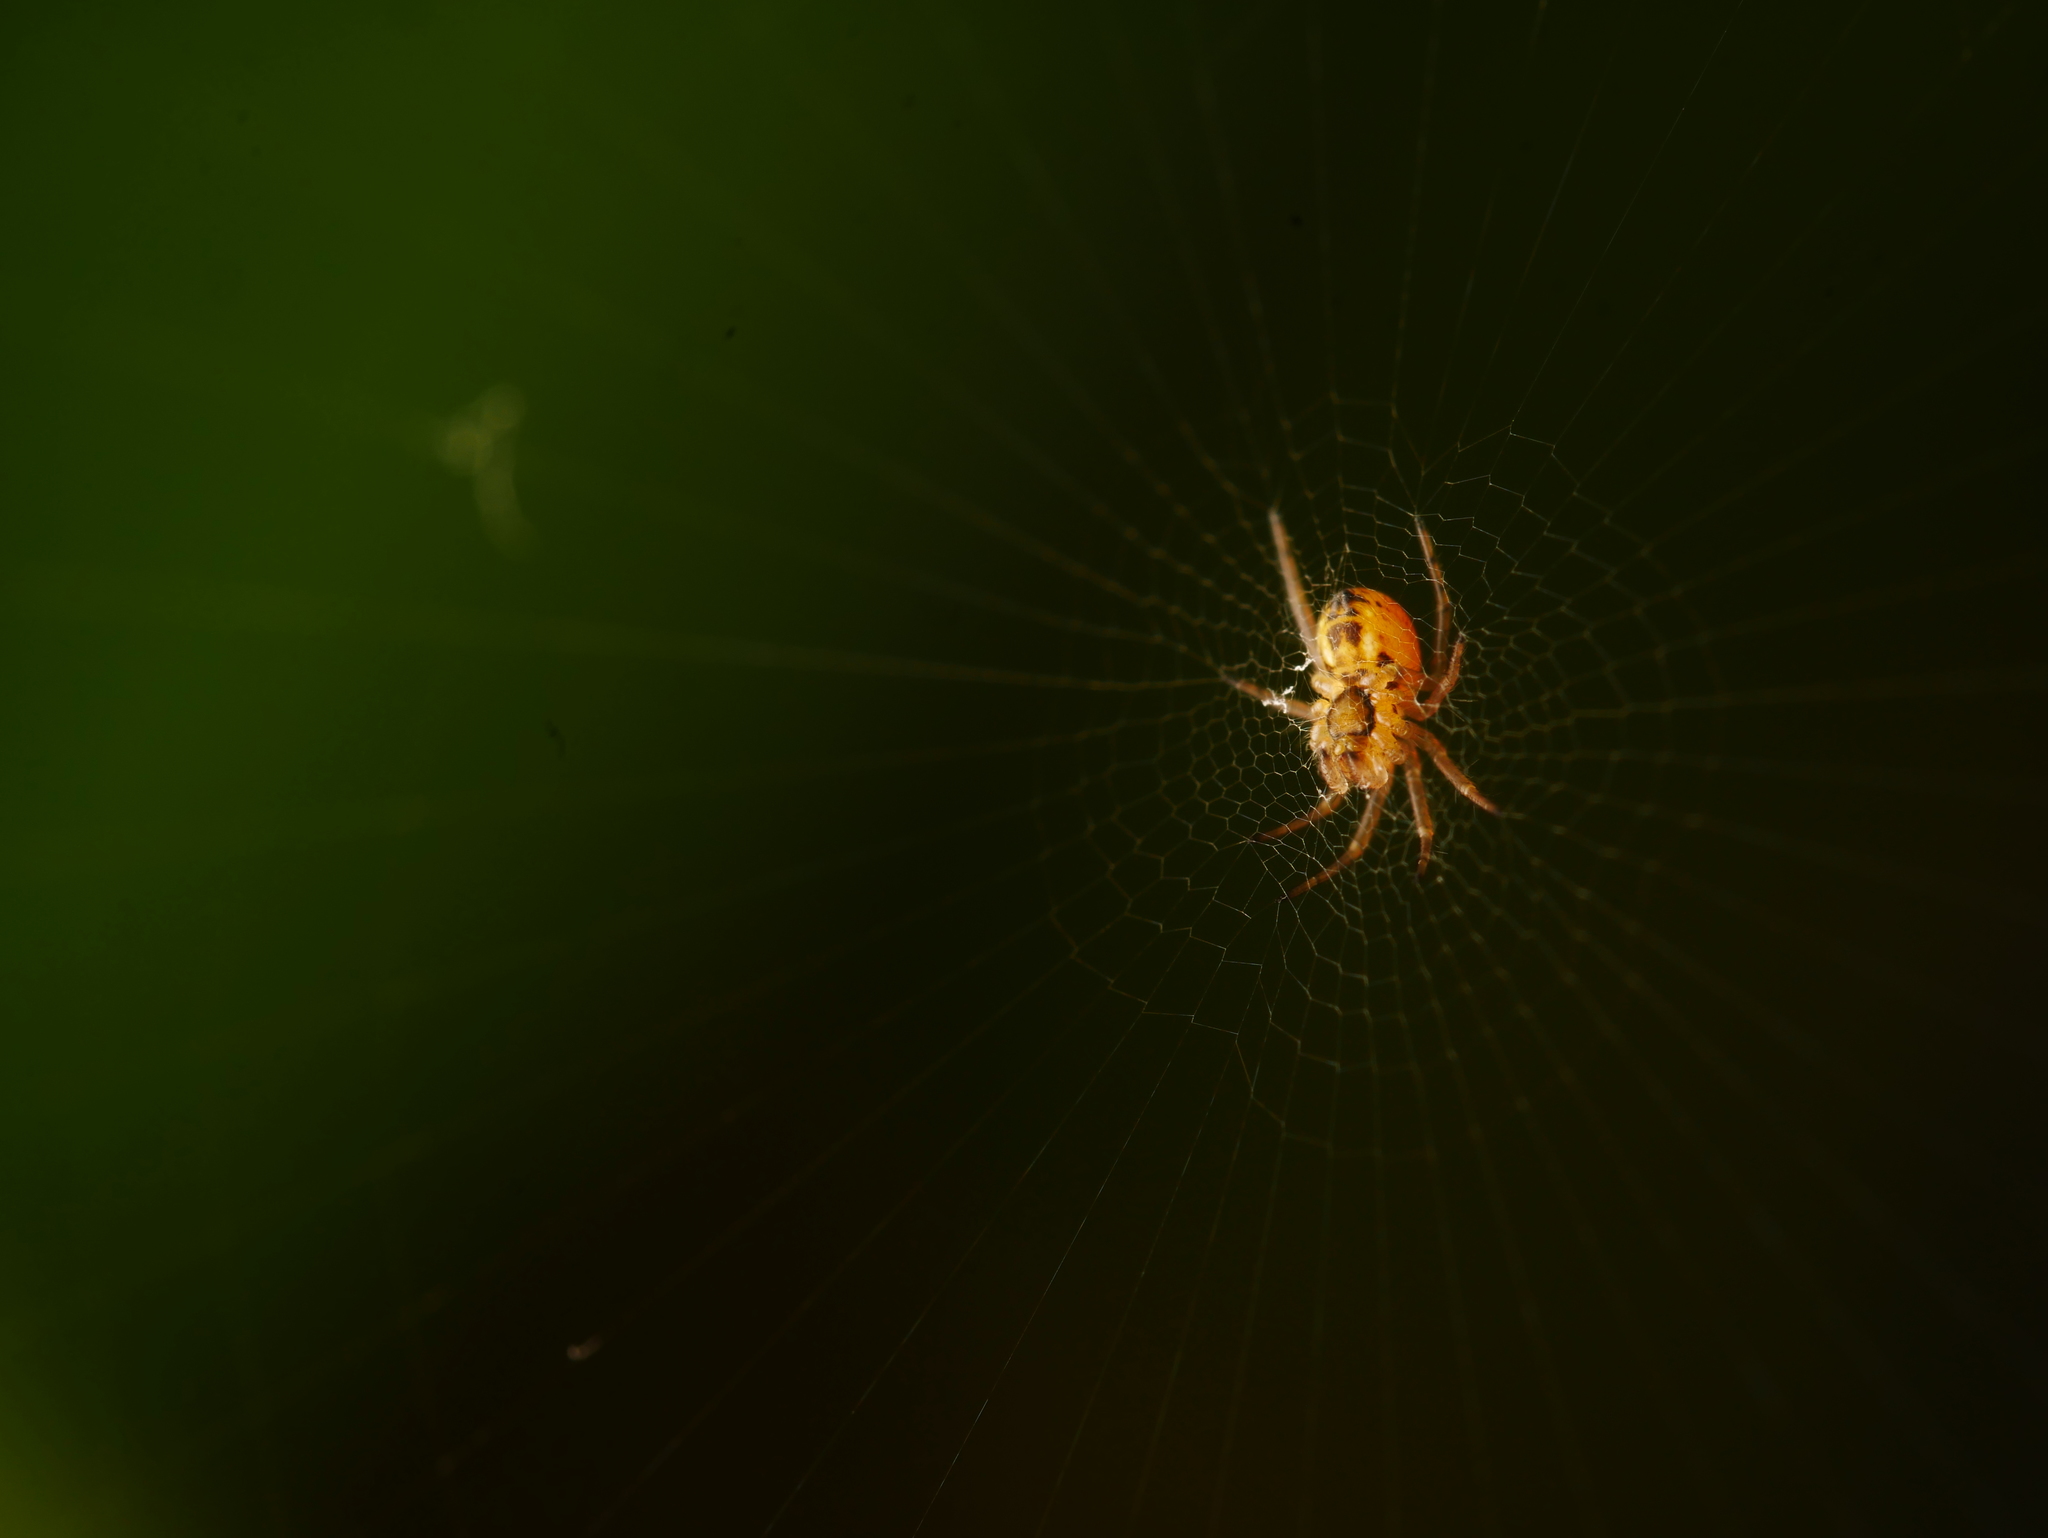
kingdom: Animalia
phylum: Arthropoda
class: Arachnida
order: Araneae
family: Araneidae
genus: Zilla
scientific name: Zilla diodia
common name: Zilla diodia
